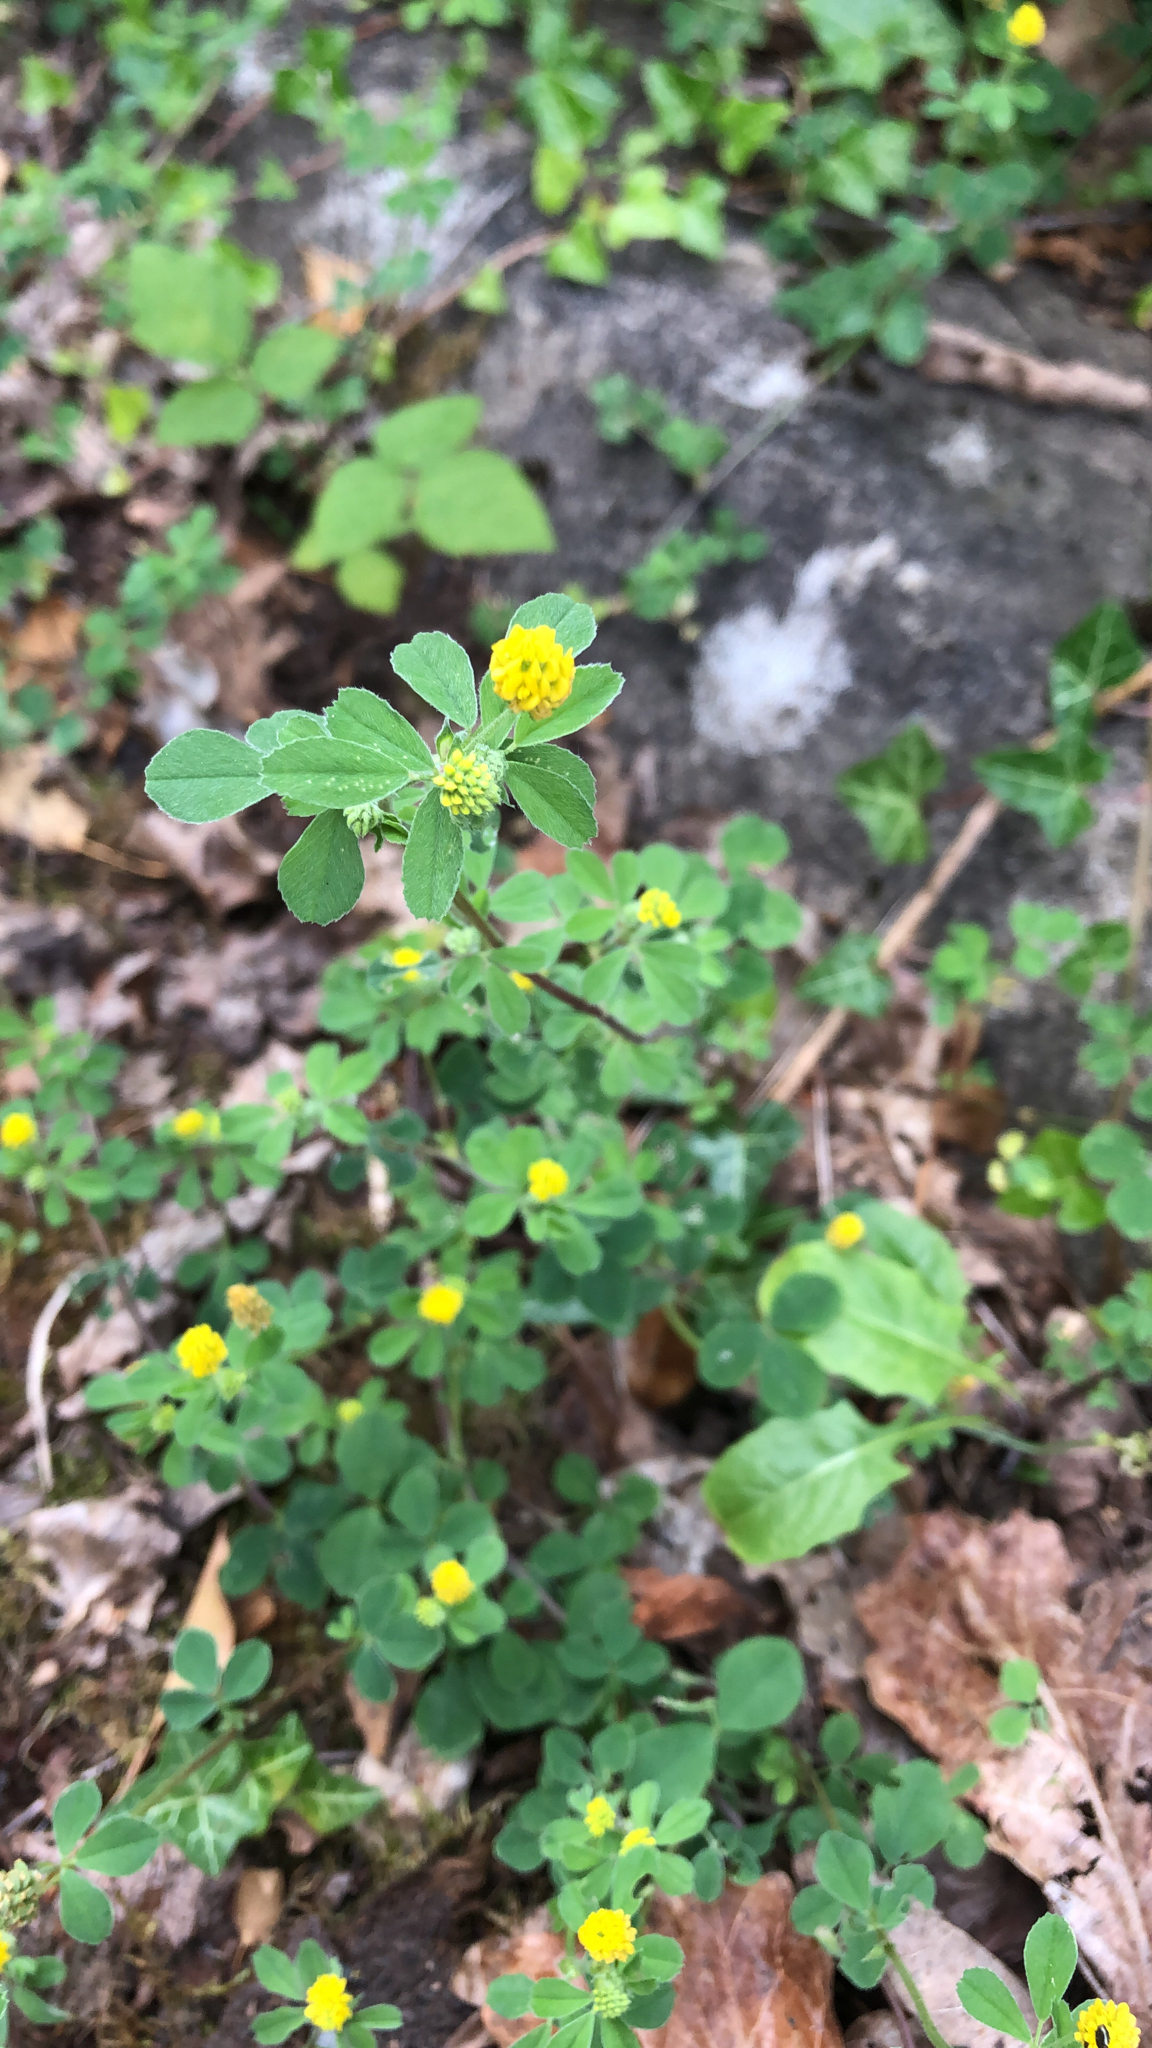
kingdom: Plantae
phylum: Tracheophyta
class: Magnoliopsida
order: Fabales
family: Fabaceae
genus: Medicago
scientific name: Medicago lupulina
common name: Black medick
